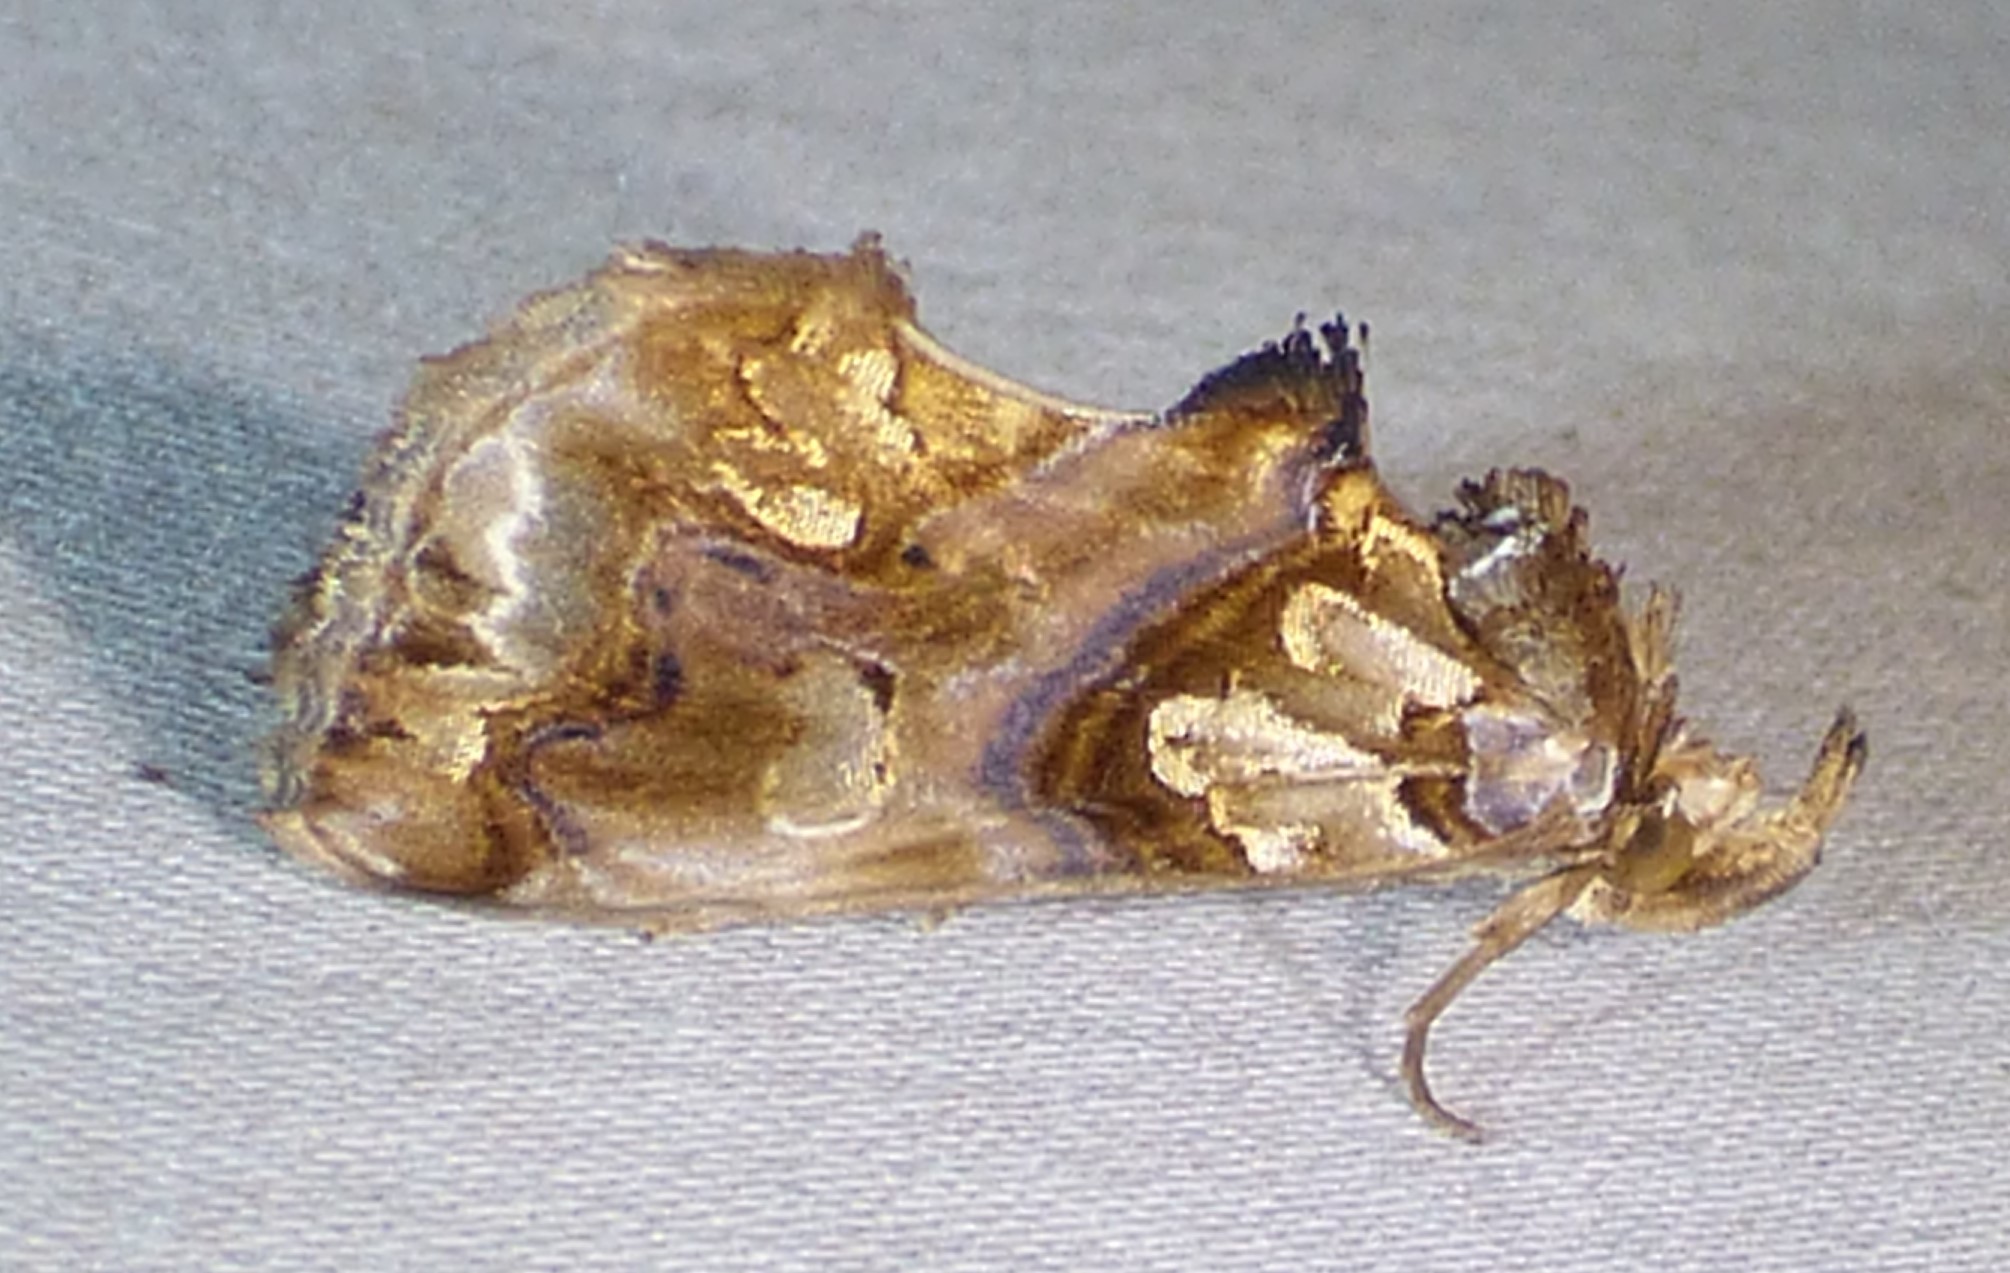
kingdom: Animalia
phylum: Arthropoda
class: Insecta
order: Lepidoptera
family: Erebidae
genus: Plusiodonta
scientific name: Plusiodonta compressipalpis
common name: Moonseed moth
